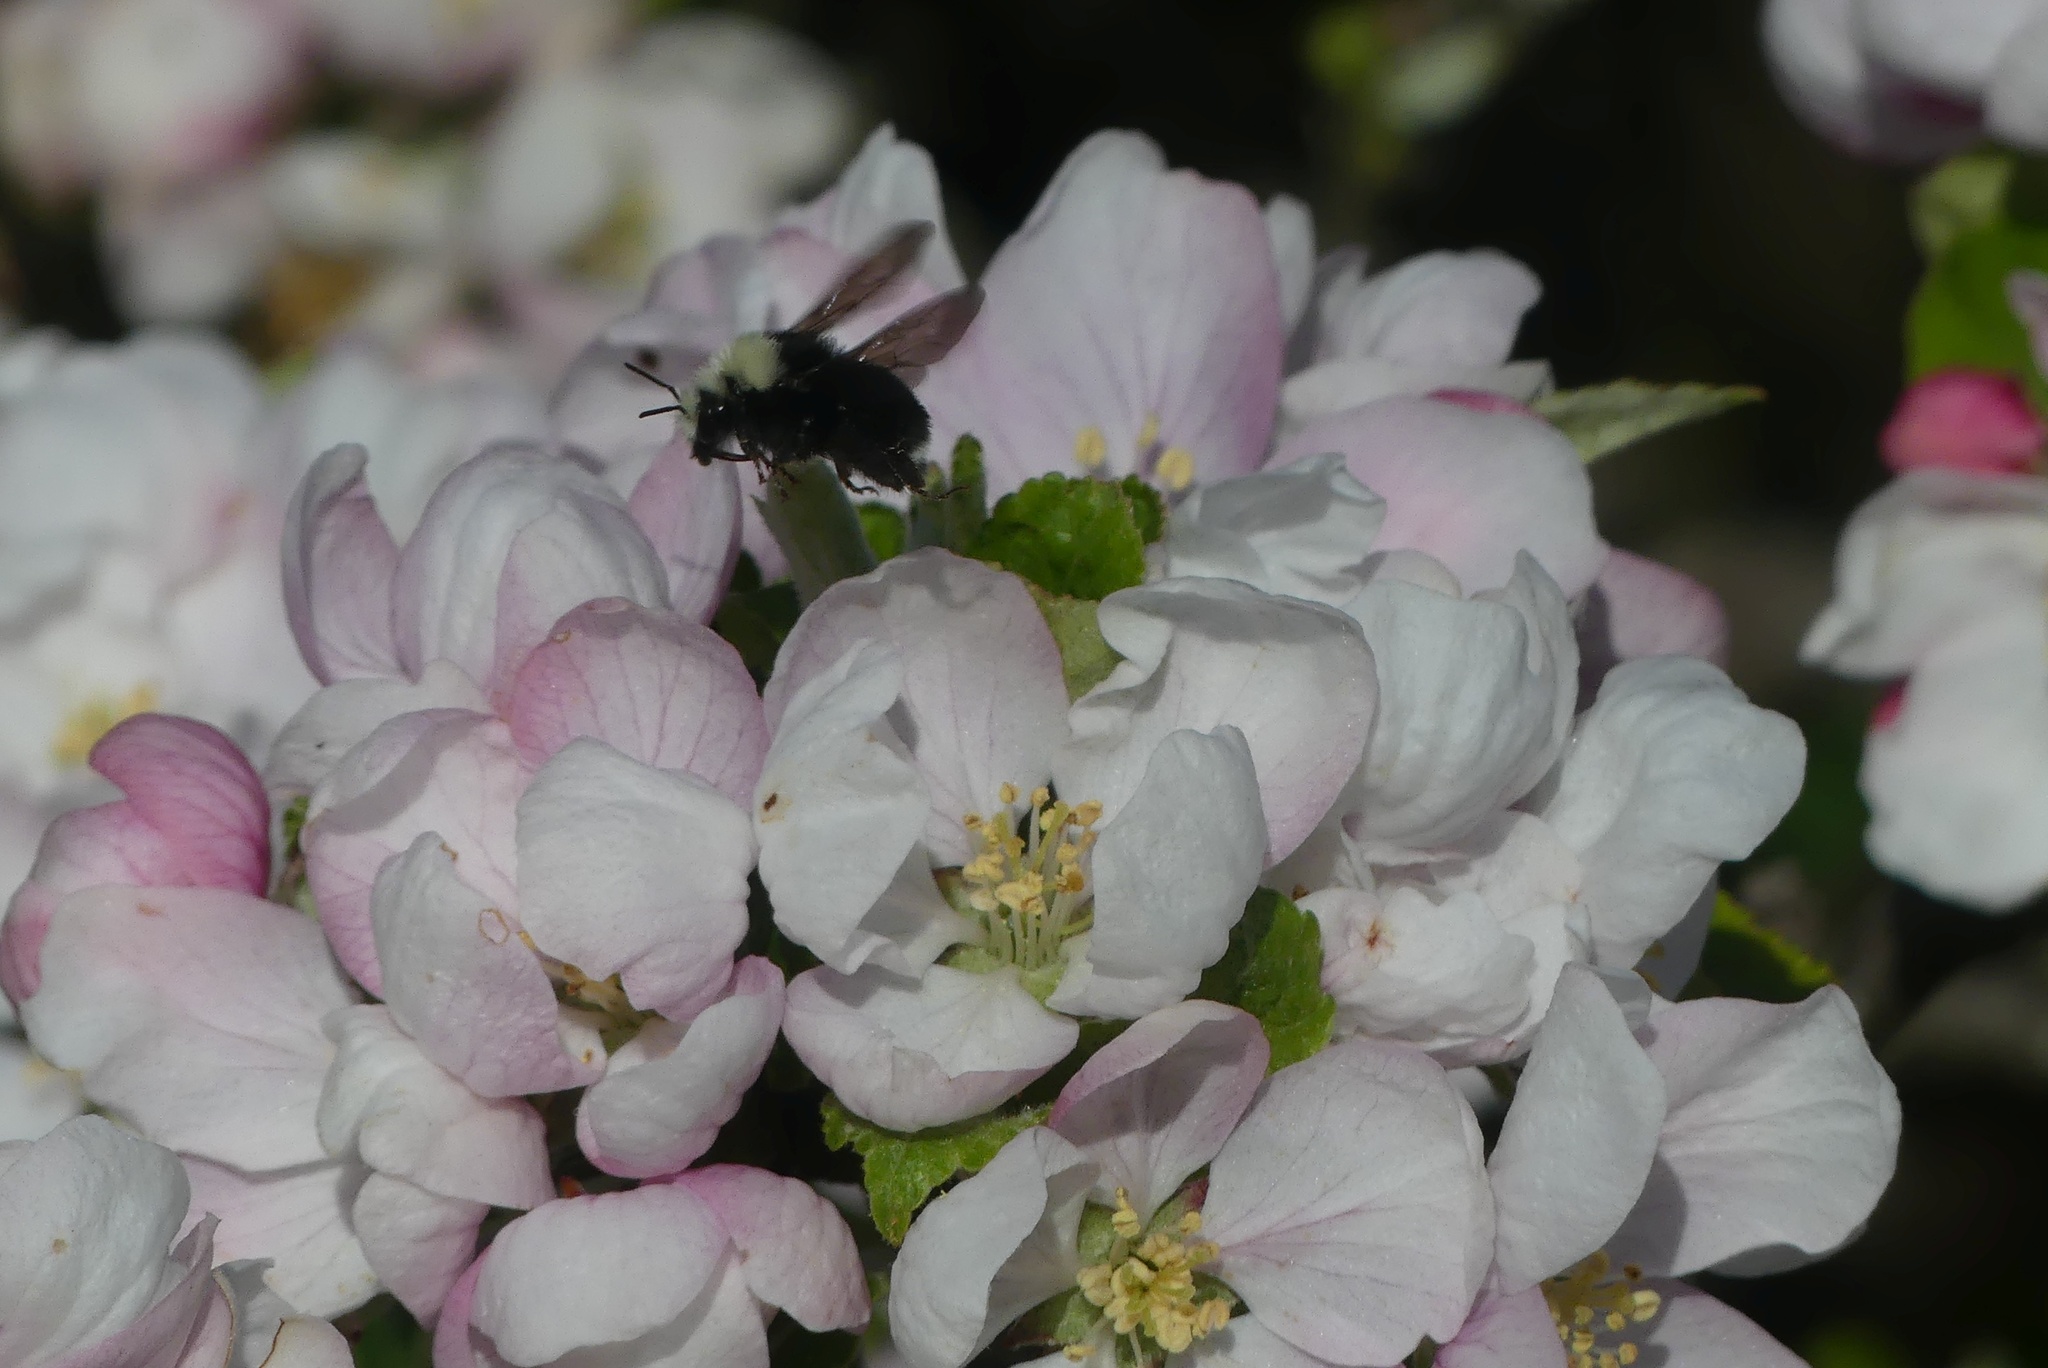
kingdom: Animalia
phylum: Arthropoda
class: Insecta
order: Hymenoptera
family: Apidae
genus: Bombus
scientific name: Bombus vosnesenskii
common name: Vosnesensky bumble bee
